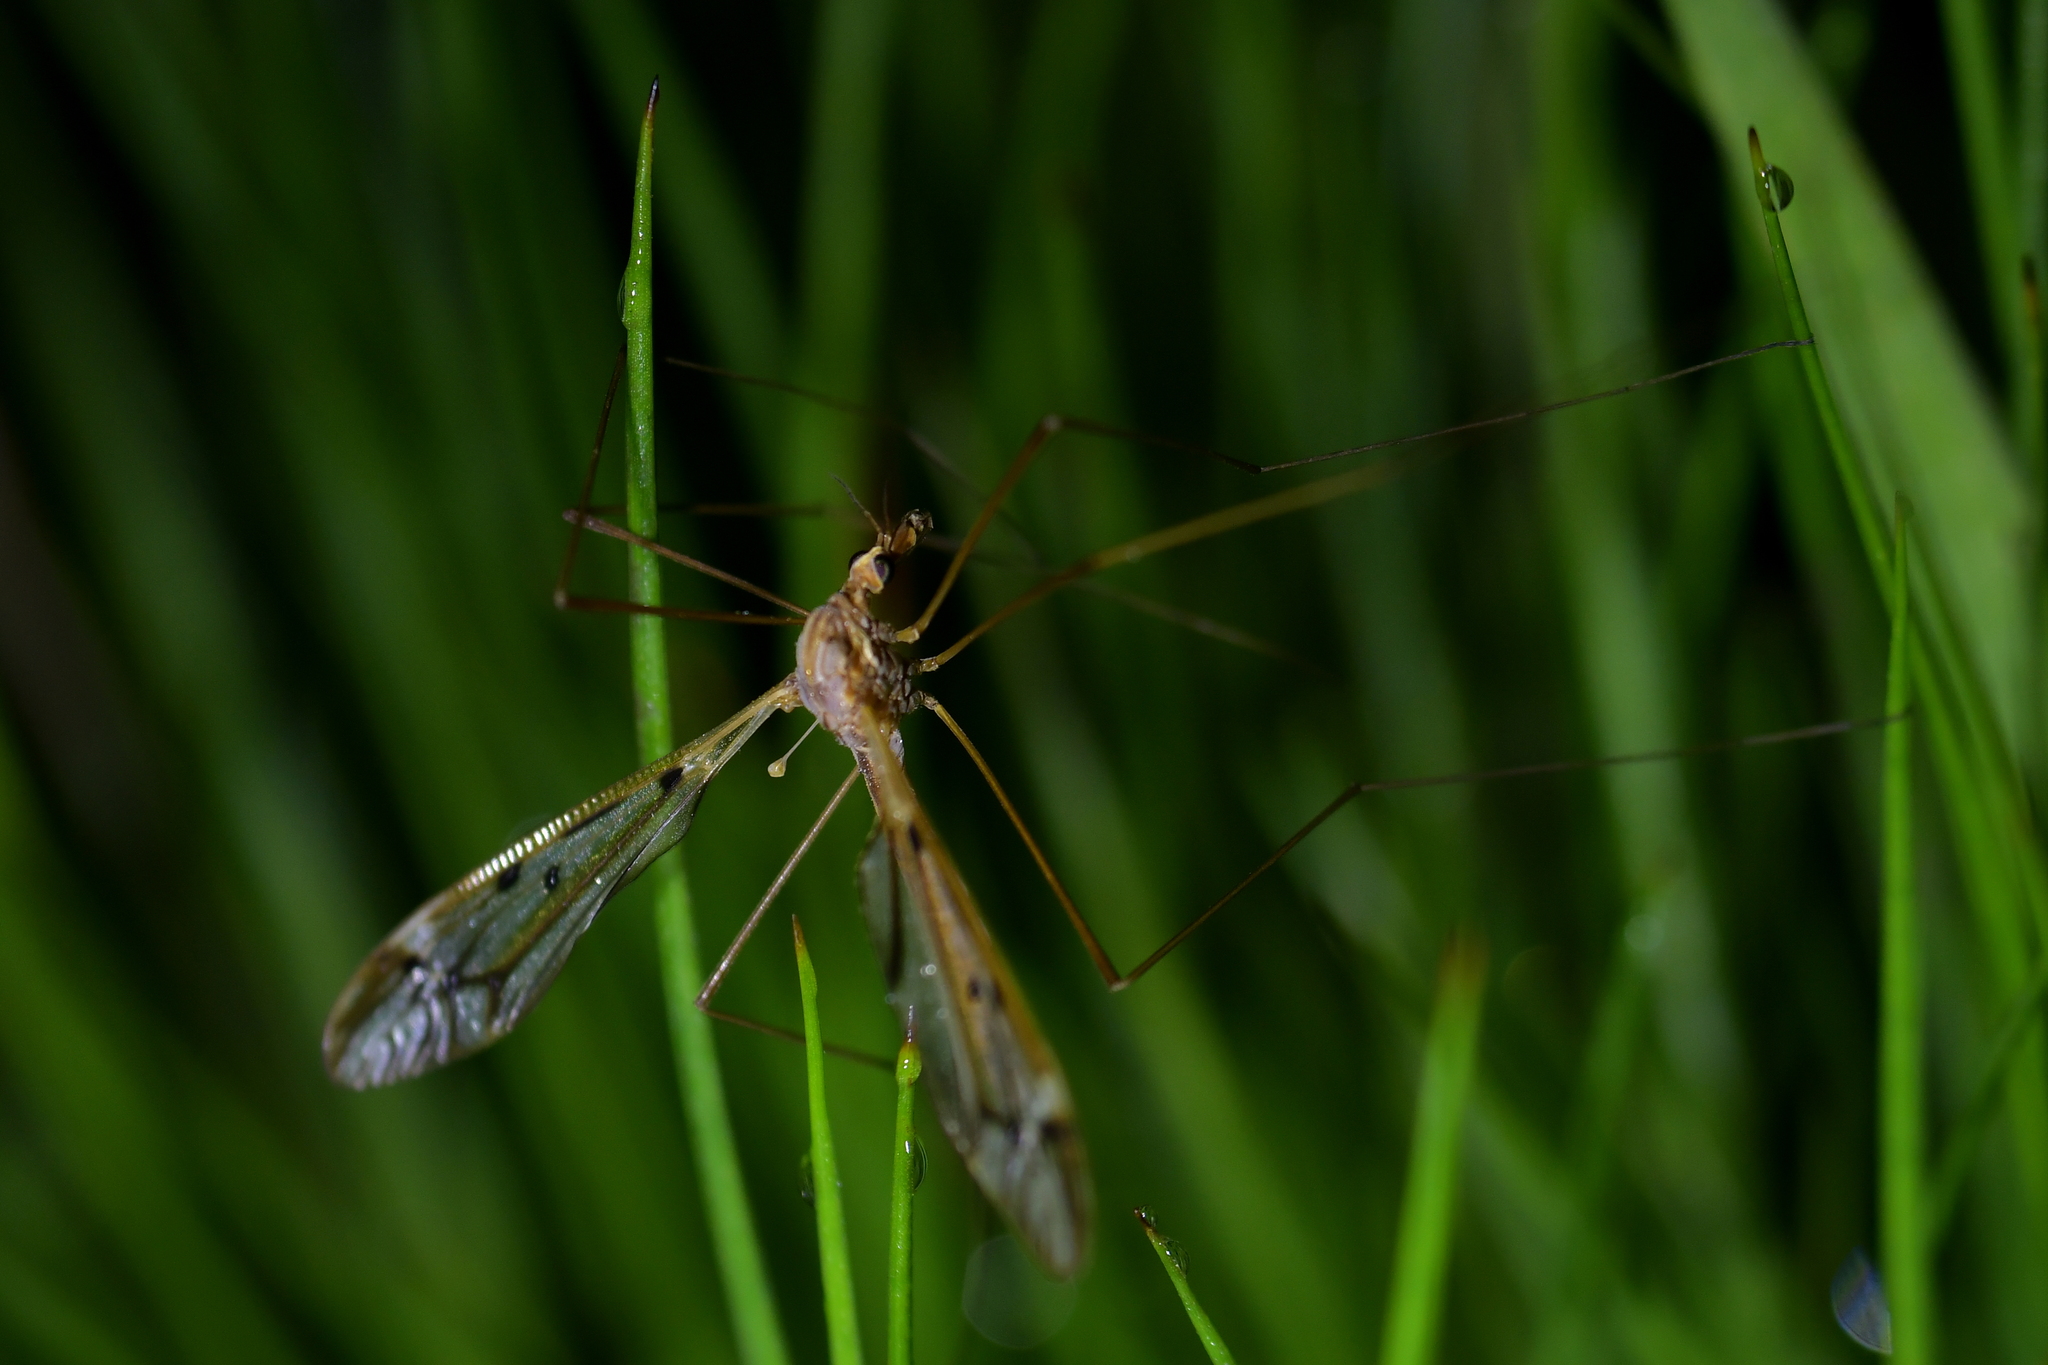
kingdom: Animalia
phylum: Arthropoda
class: Insecta
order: Diptera
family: Tipulidae
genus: Zelandotipula
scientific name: Zelandotipula novarae
